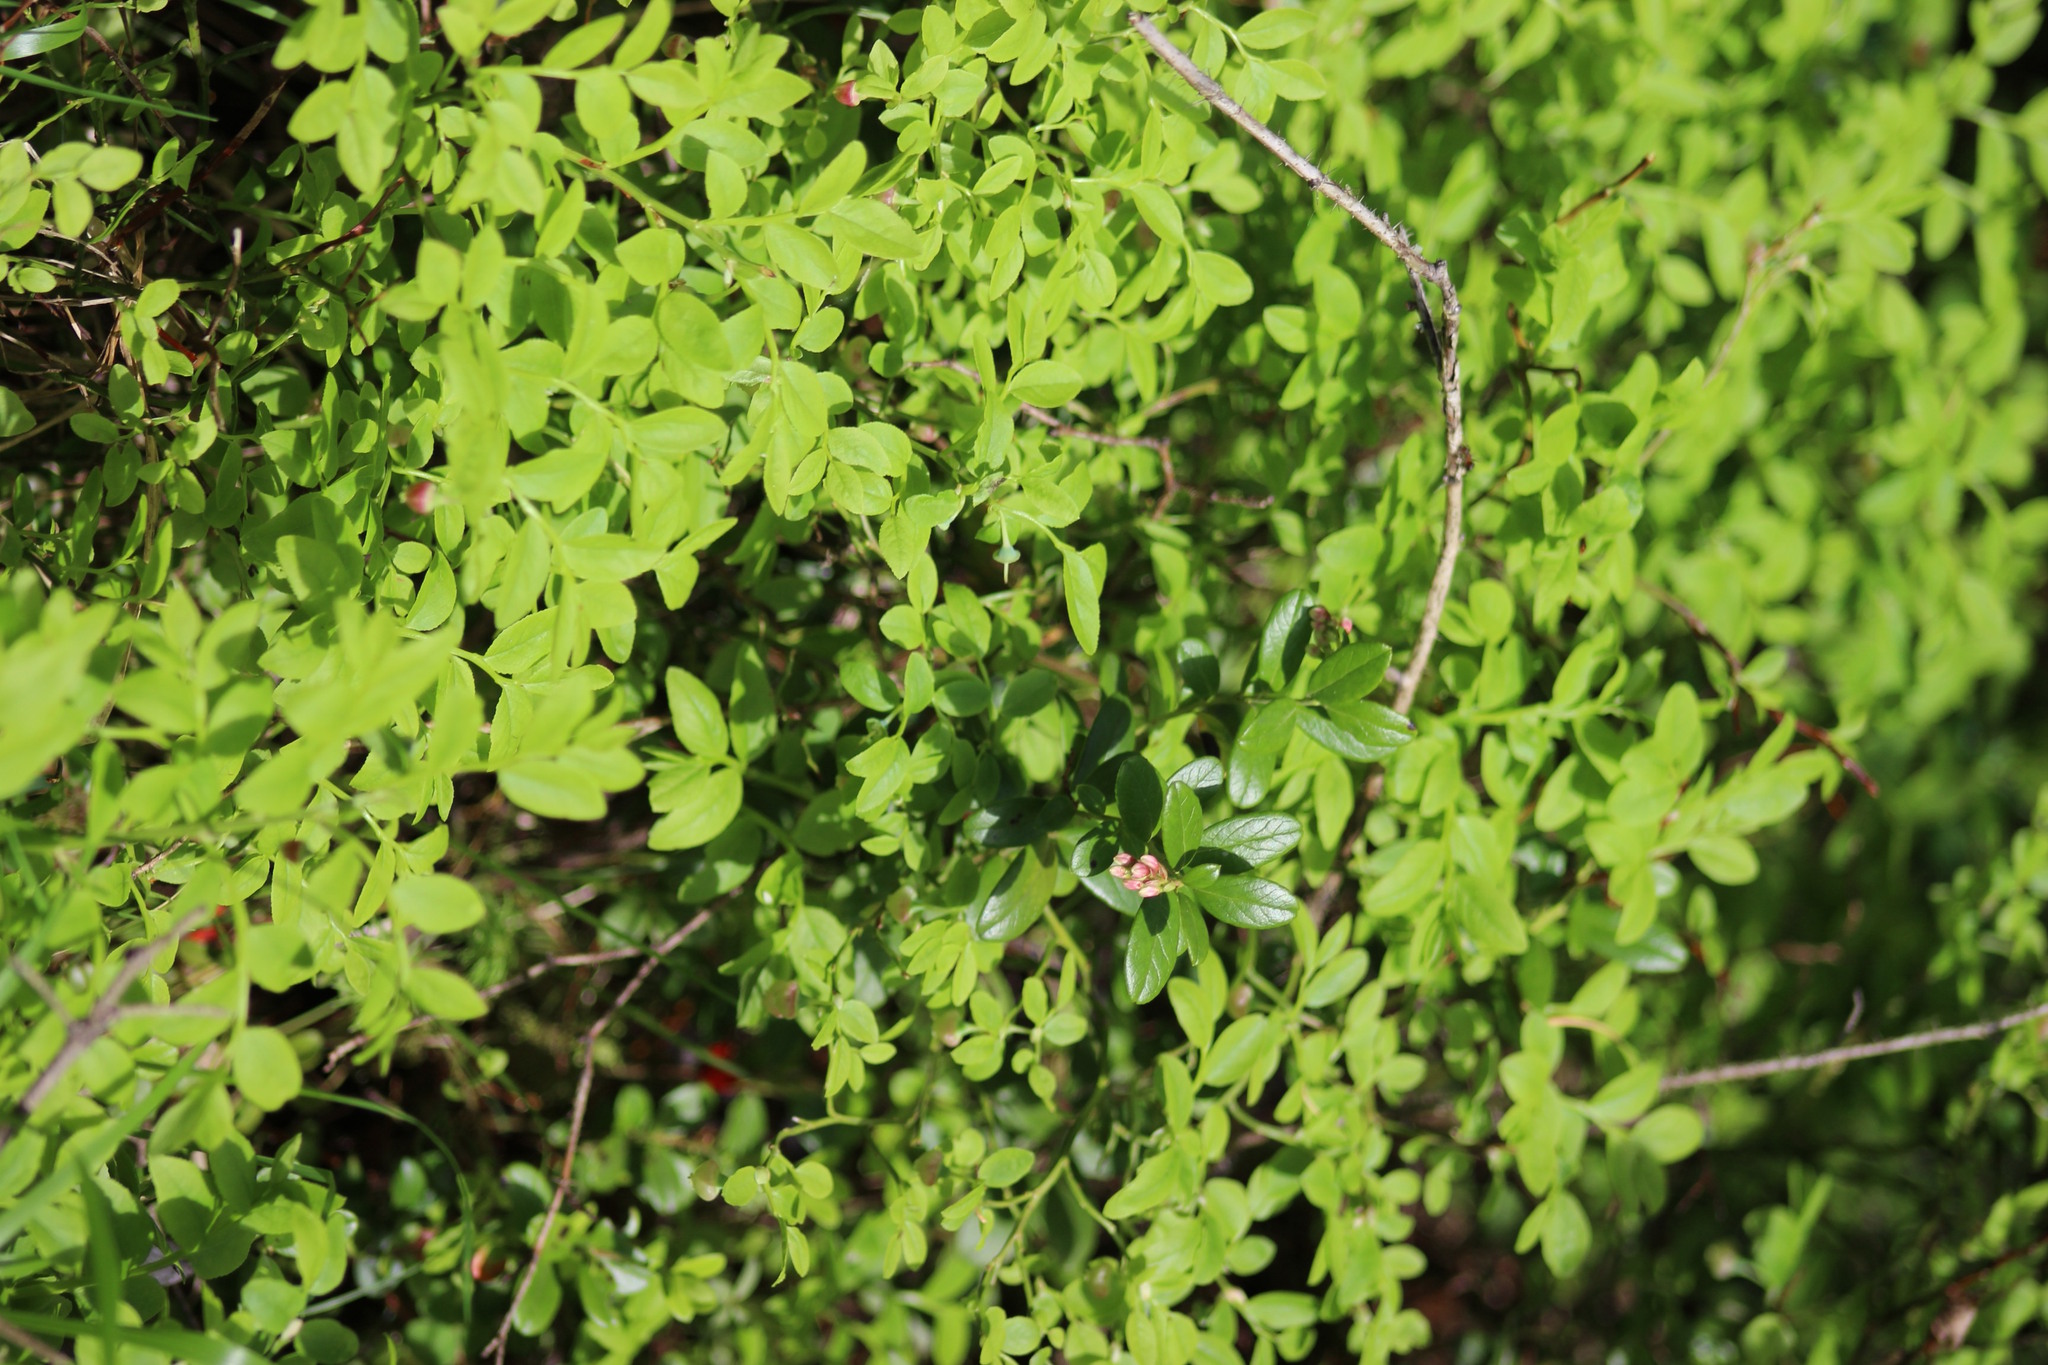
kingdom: Plantae
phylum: Tracheophyta
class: Magnoliopsida
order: Ericales
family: Ericaceae
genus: Vaccinium
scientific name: Vaccinium myrtillus
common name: Bilberry
